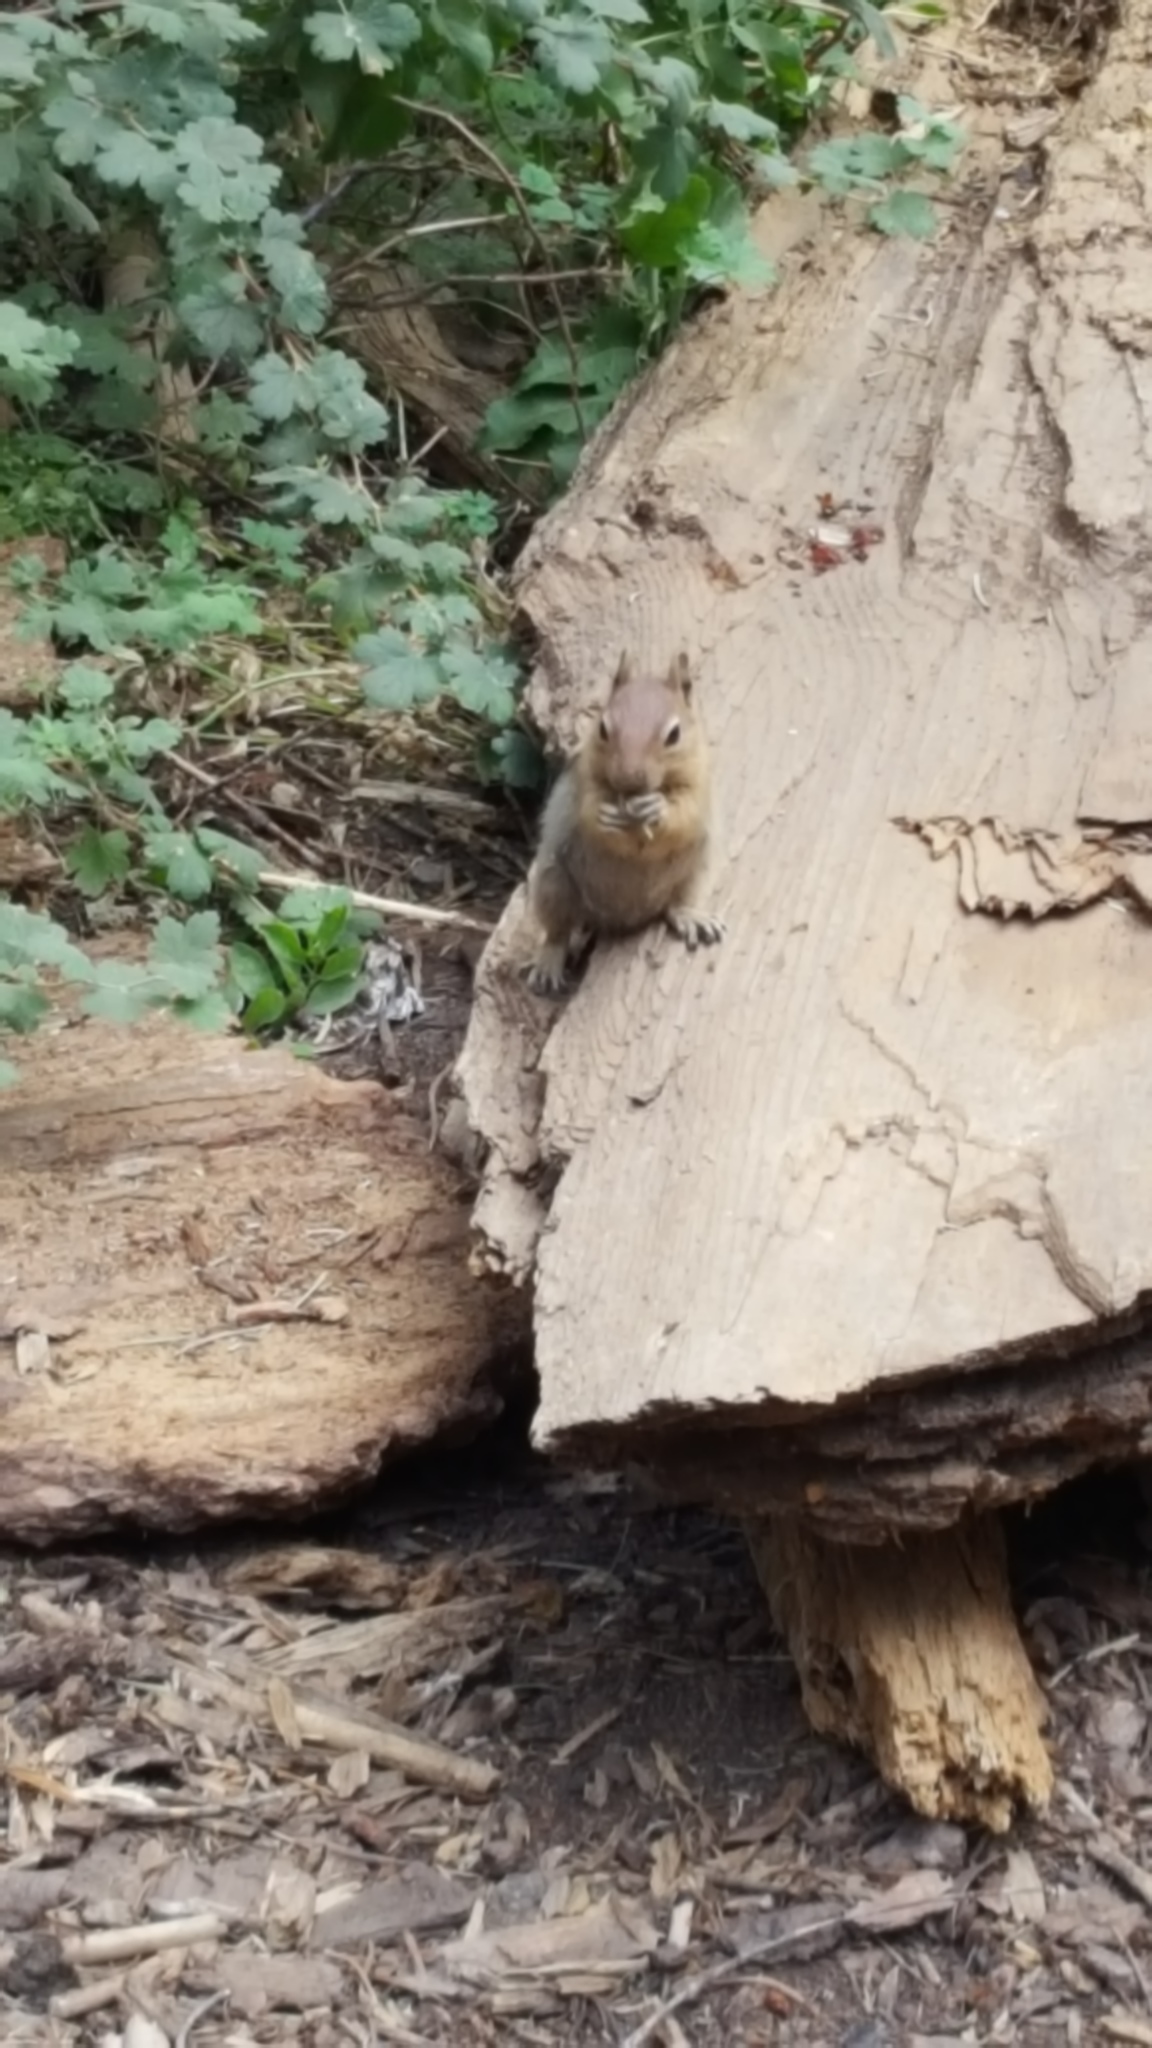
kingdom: Animalia
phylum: Chordata
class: Mammalia
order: Rodentia
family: Sciuridae
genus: Callospermophilus
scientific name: Callospermophilus lateralis
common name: Golden-mantled ground squirrel
